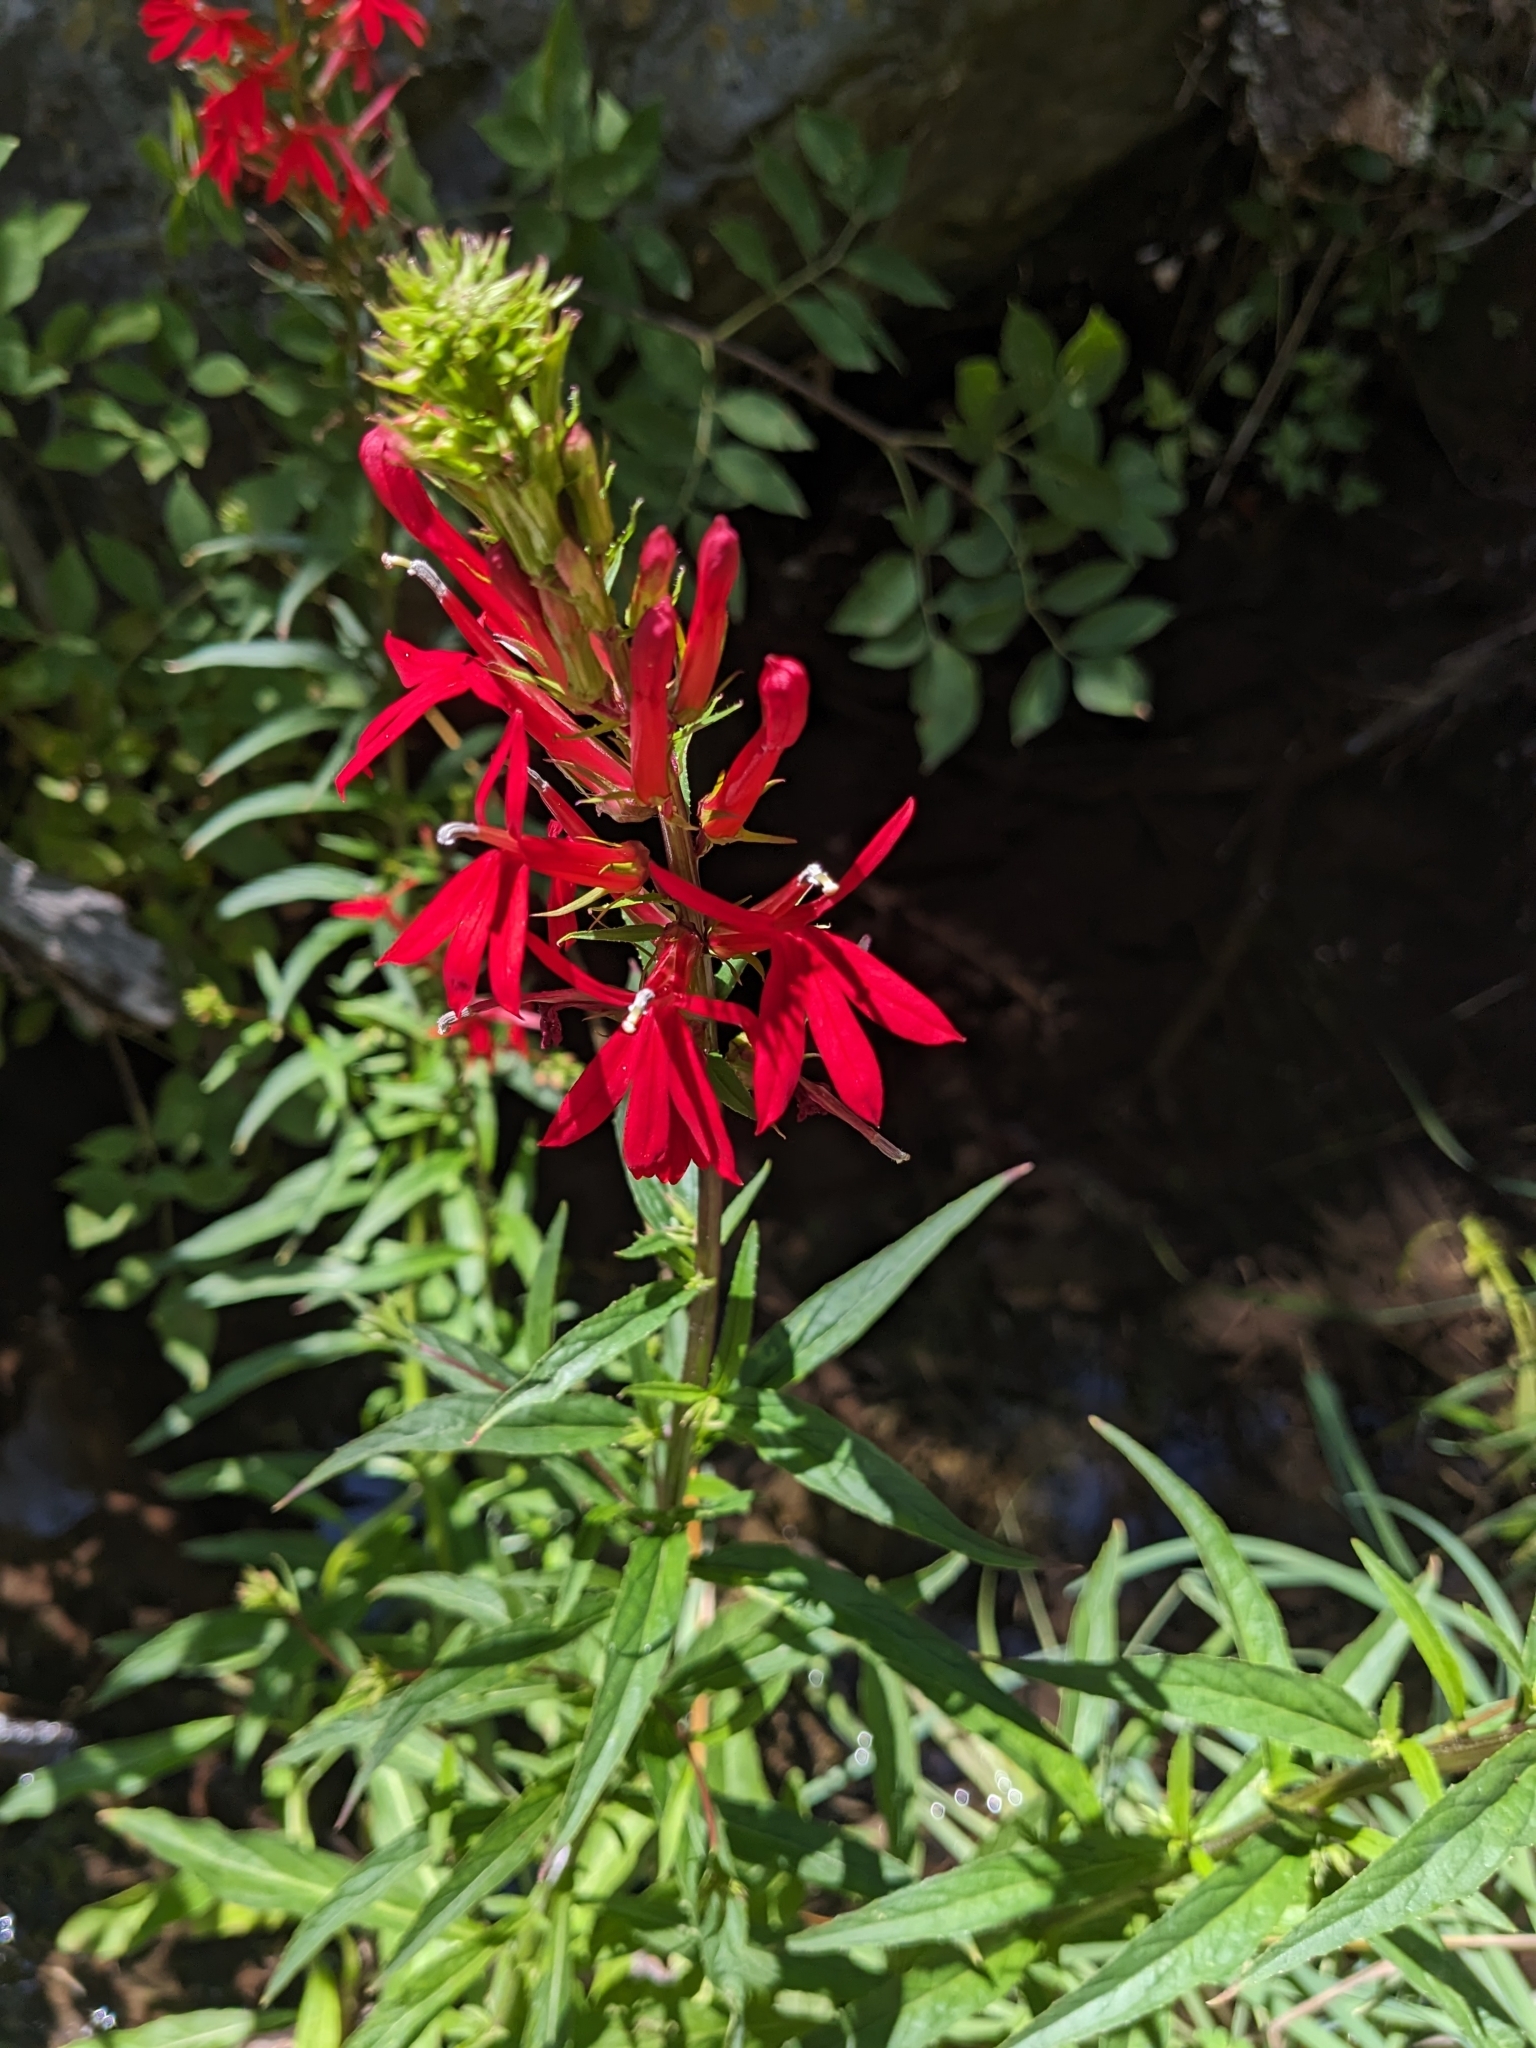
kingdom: Plantae
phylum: Tracheophyta
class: Magnoliopsida
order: Asterales
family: Campanulaceae
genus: Lobelia
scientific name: Lobelia cardinalis
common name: Cardinal flower
